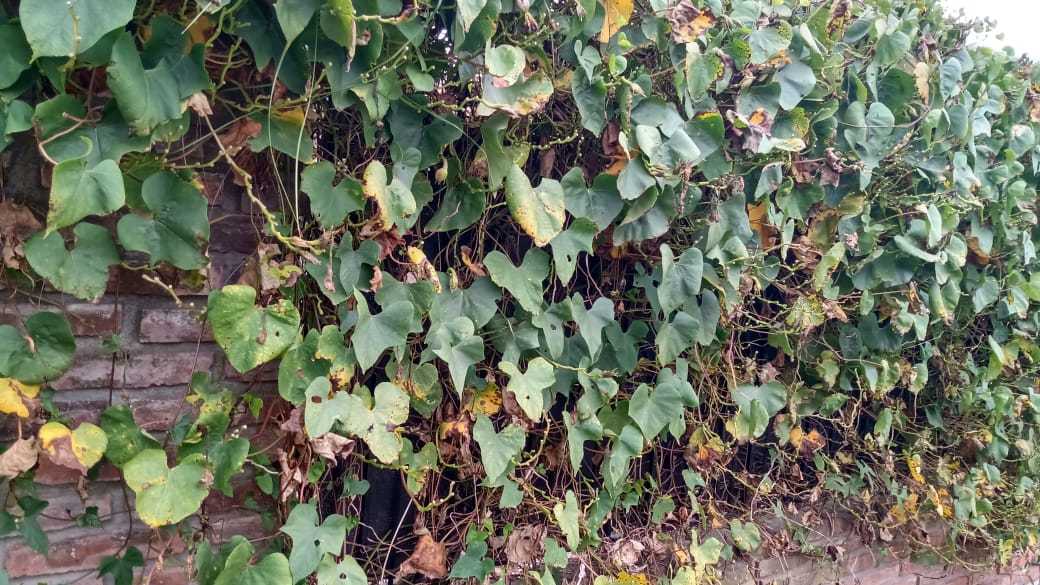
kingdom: Plantae
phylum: Tracheophyta
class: Magnoliopsida
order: Solanales
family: Convolvulaceae
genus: Ipomoea
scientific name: Ipomoea alba
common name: Moonflower
